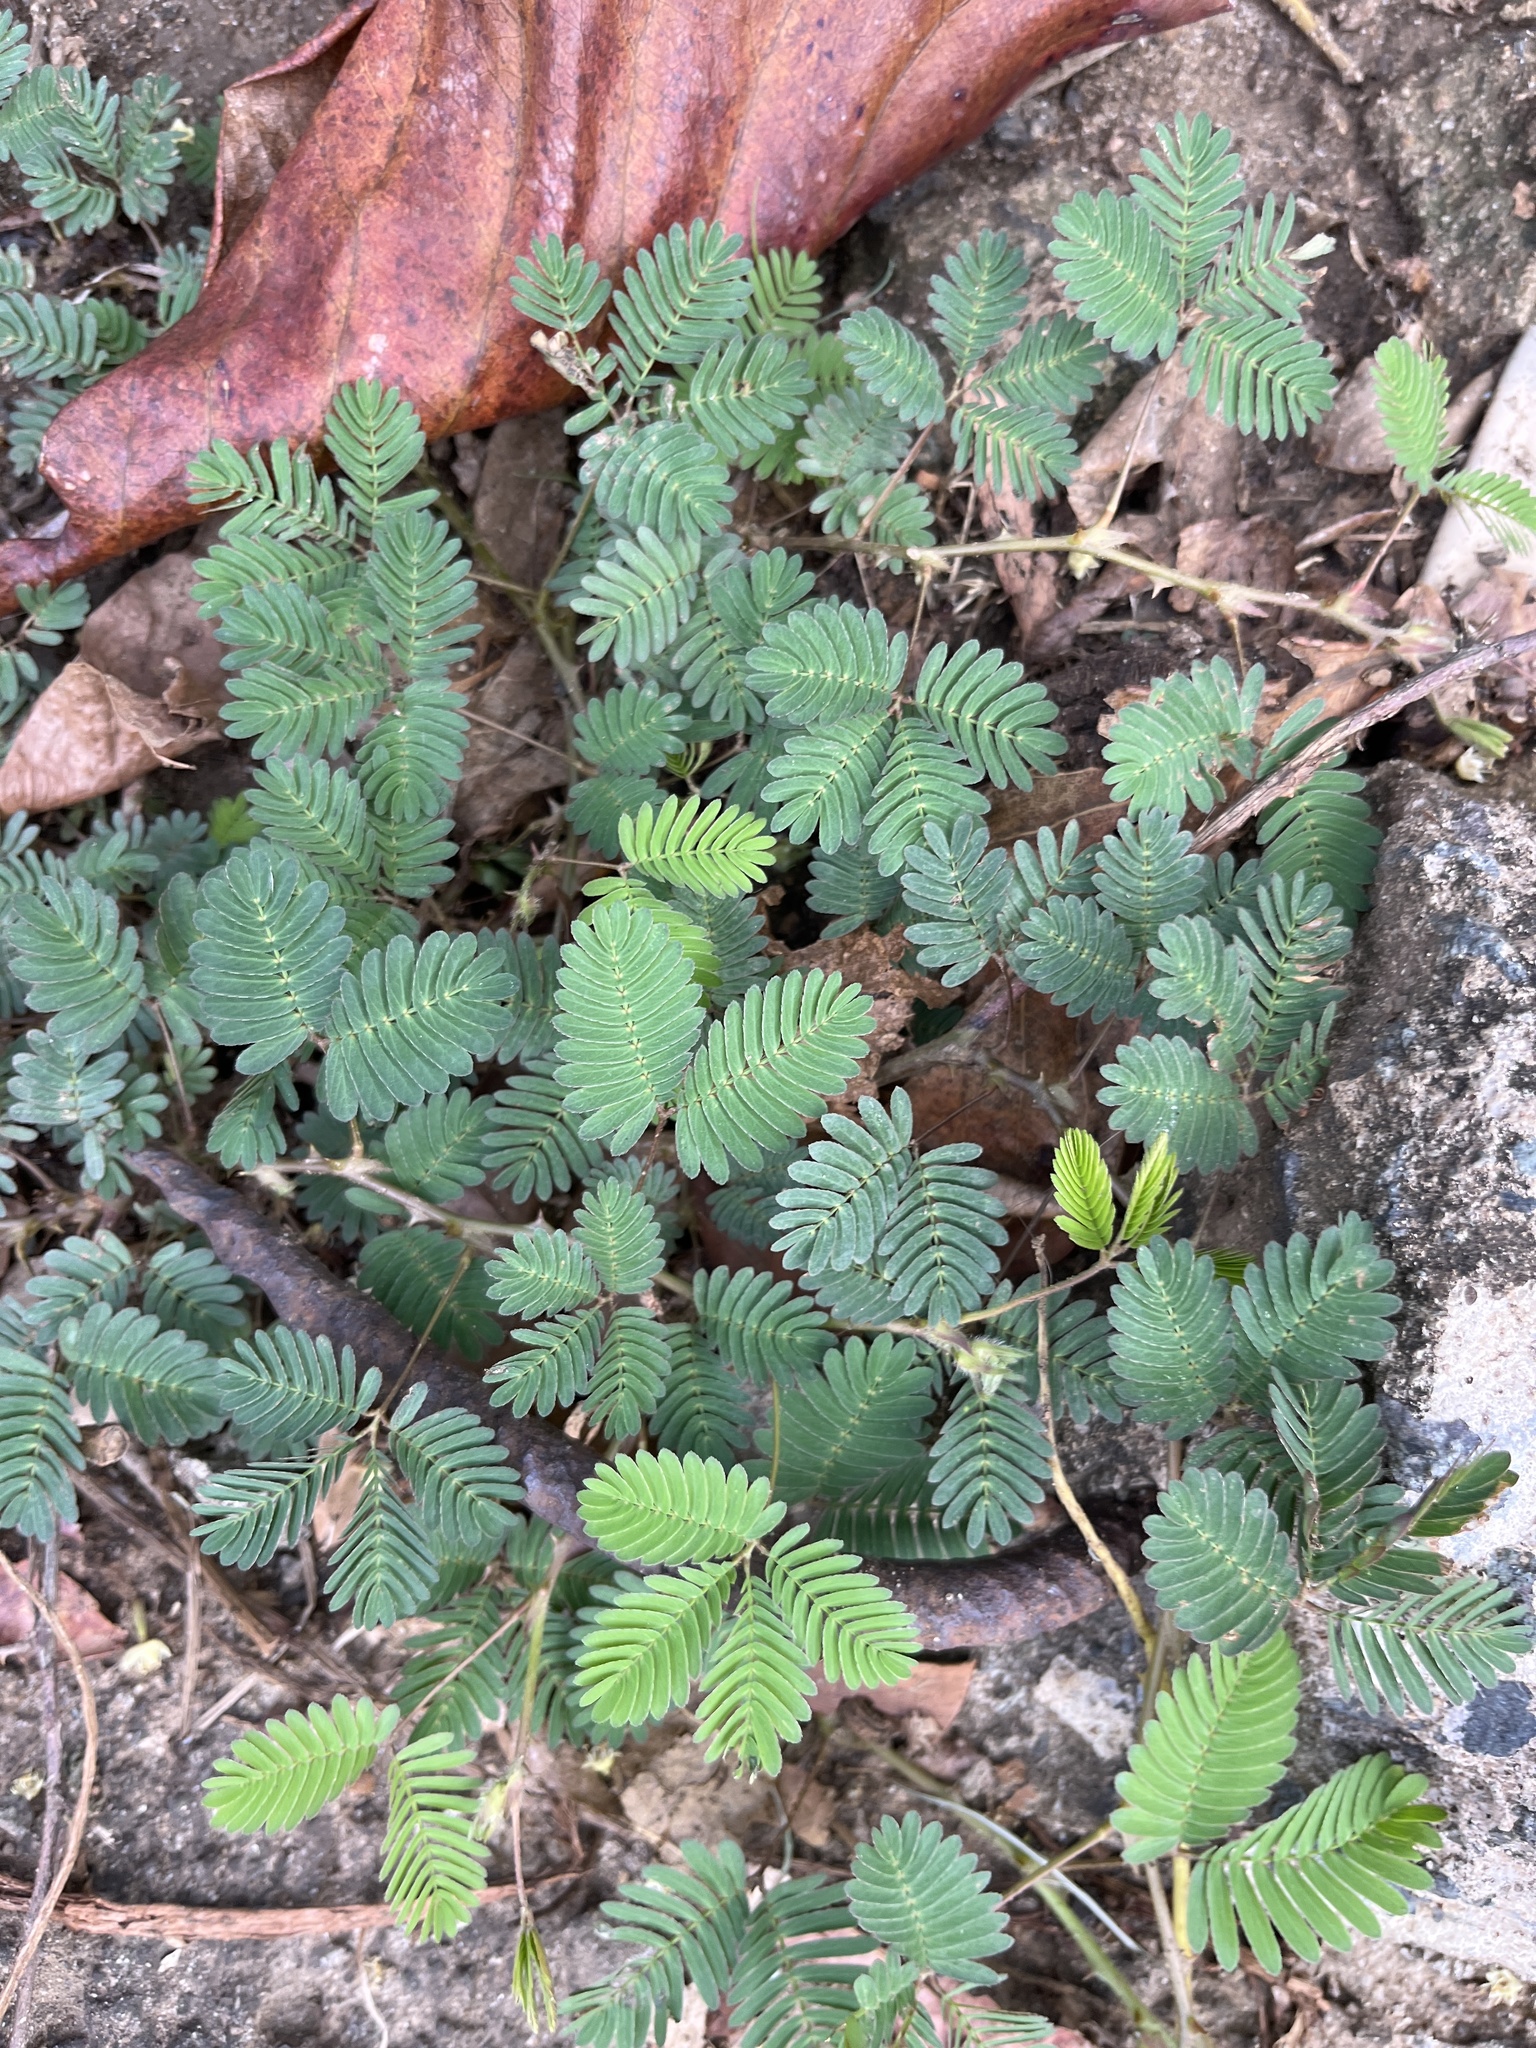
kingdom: Plantae
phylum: Tracheophyta
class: Magnoliopsida
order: Fabales
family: Fabaceae
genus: Mimosa
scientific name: Mimosa pudica
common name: Sensitive plant
